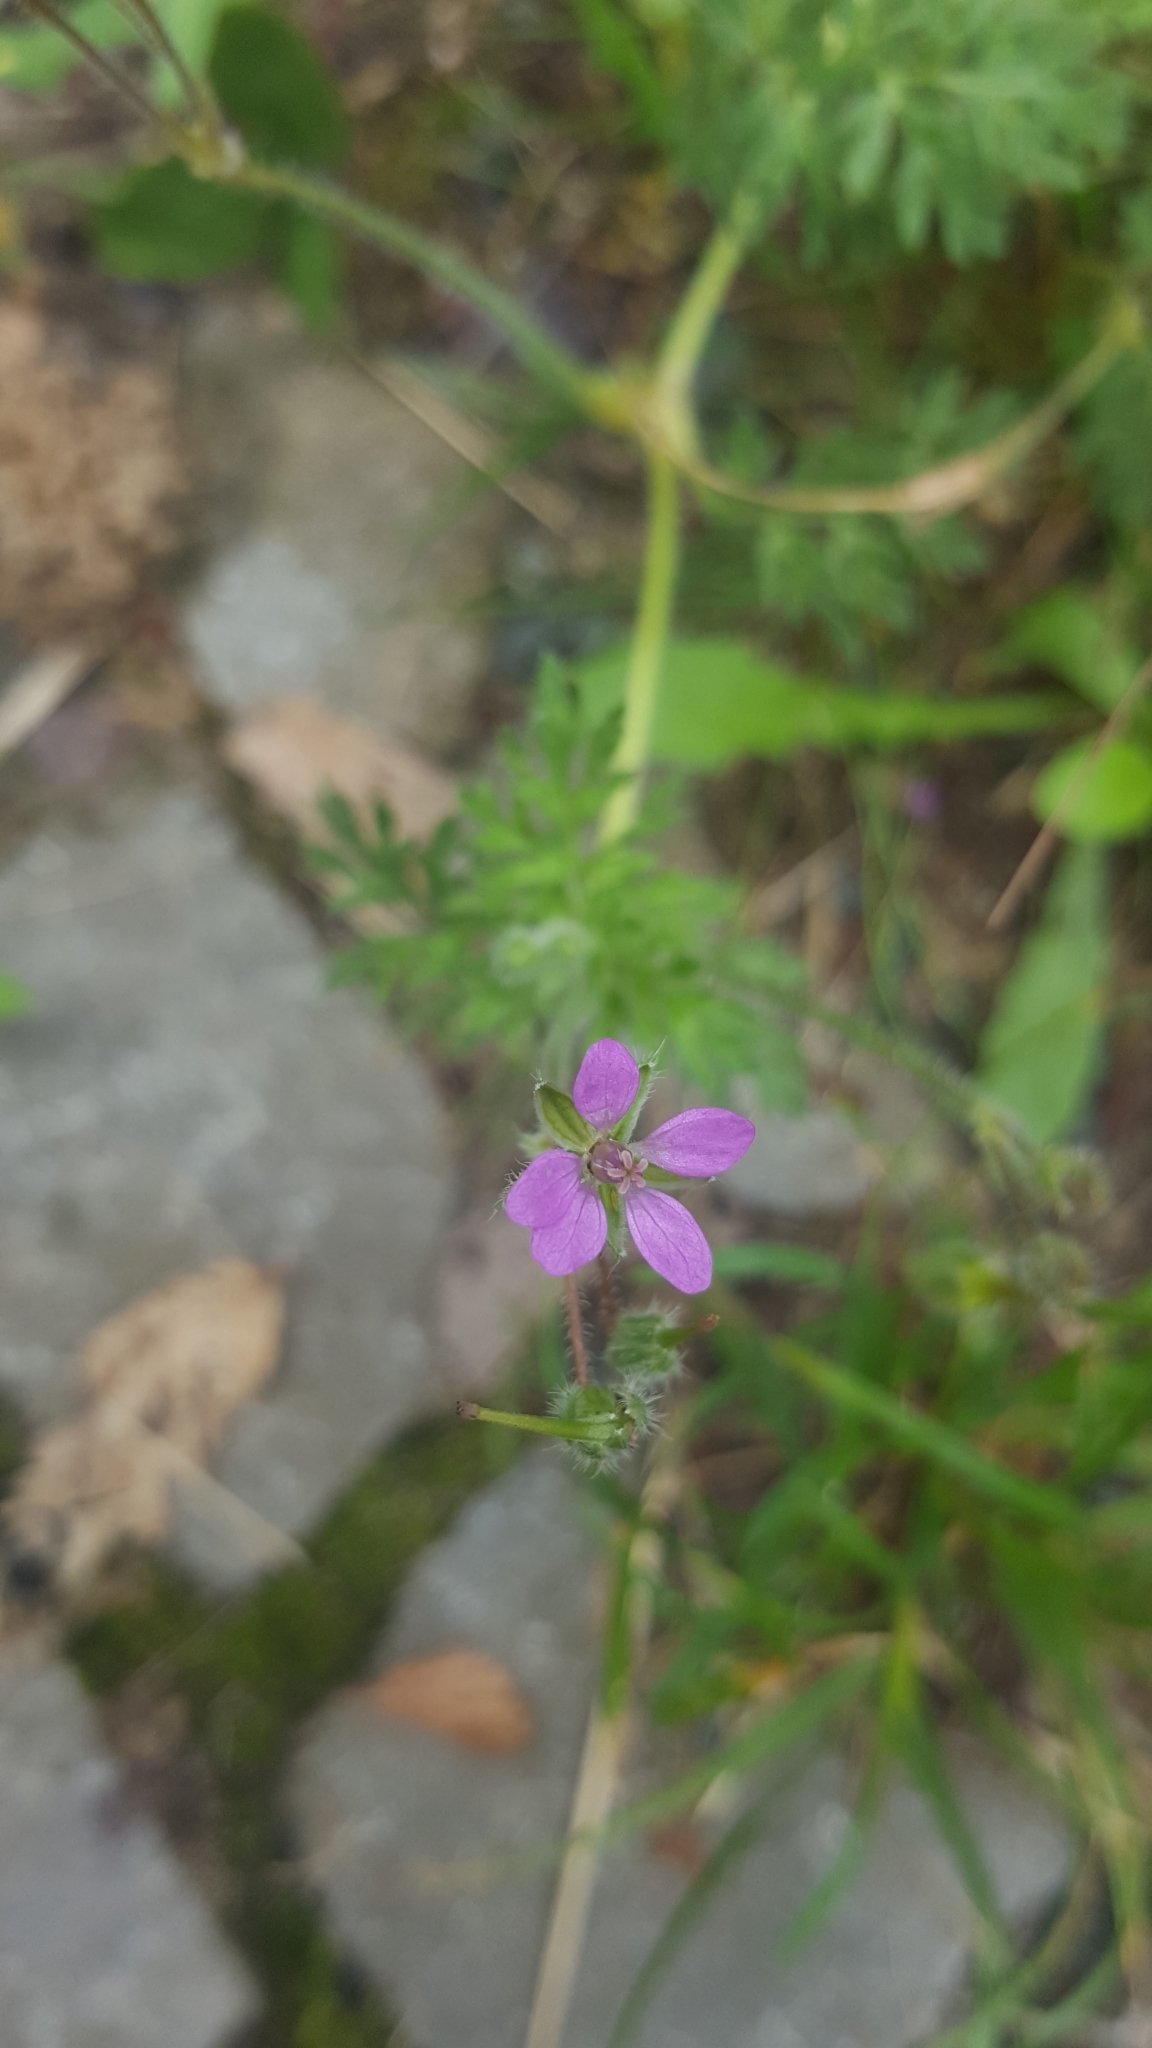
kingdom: Plantae
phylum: Tracheophyta
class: Magnoliopsida
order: Geraniales
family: Geraniaceae
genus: Erodium
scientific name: Erodium cicutarium
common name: Common stork's-bill
